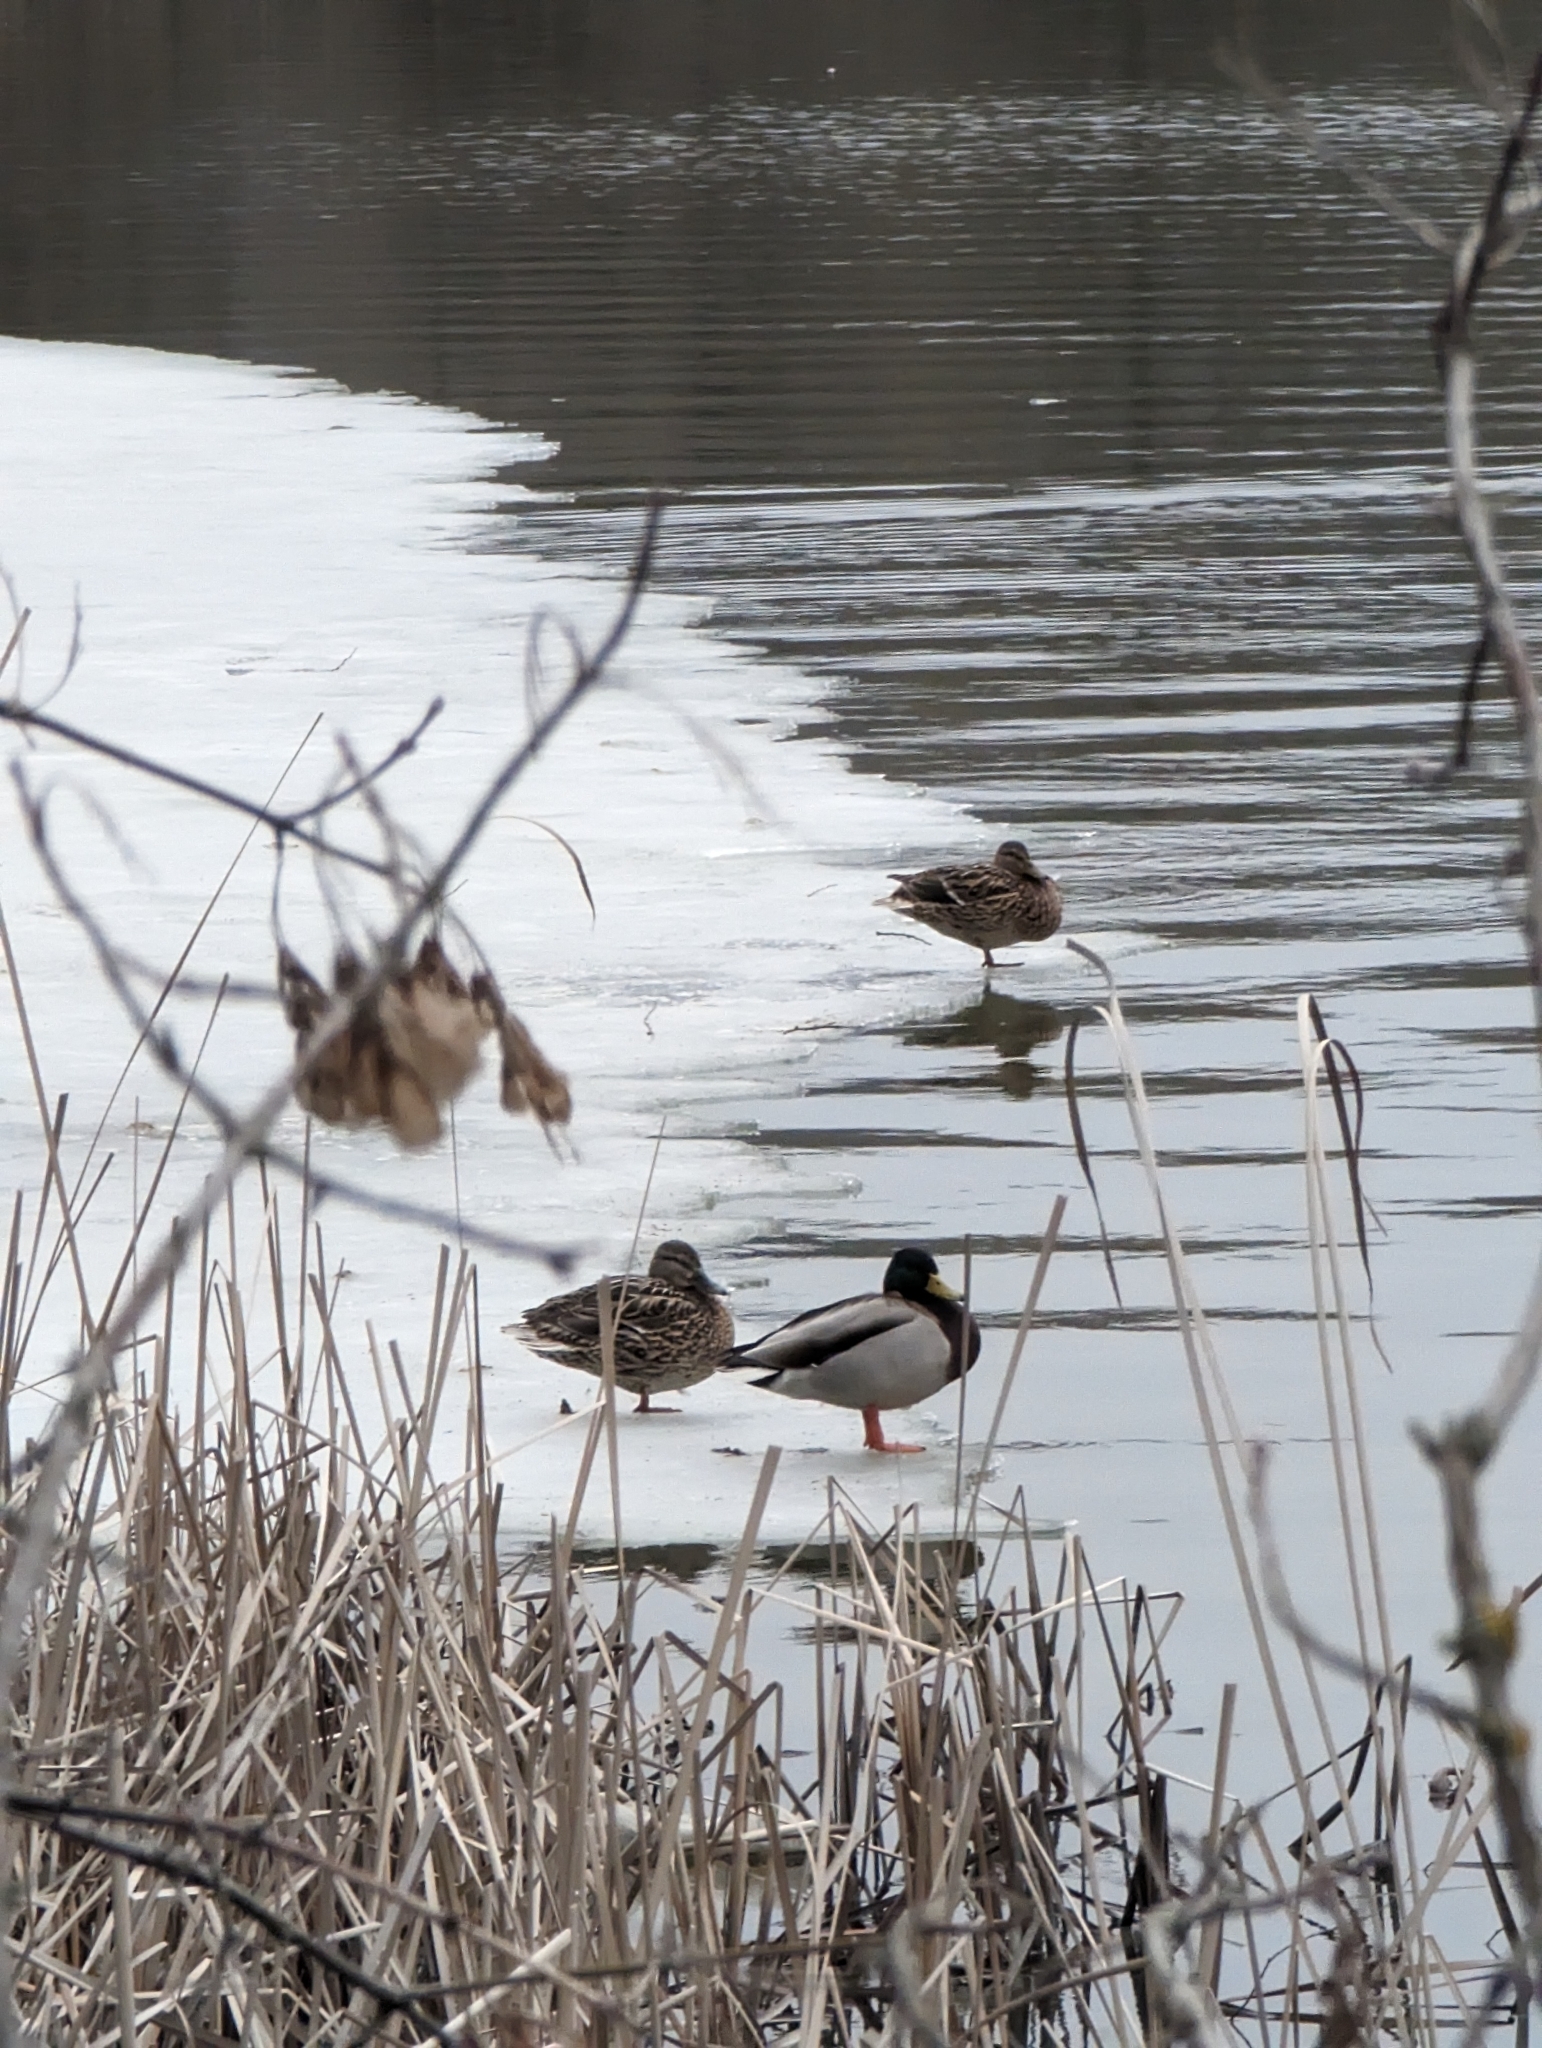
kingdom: Animalia
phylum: Chordata
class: Aves
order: Anseriformes
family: Anatidae
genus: Anas
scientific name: Anas platyrhynchos
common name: Mallard
